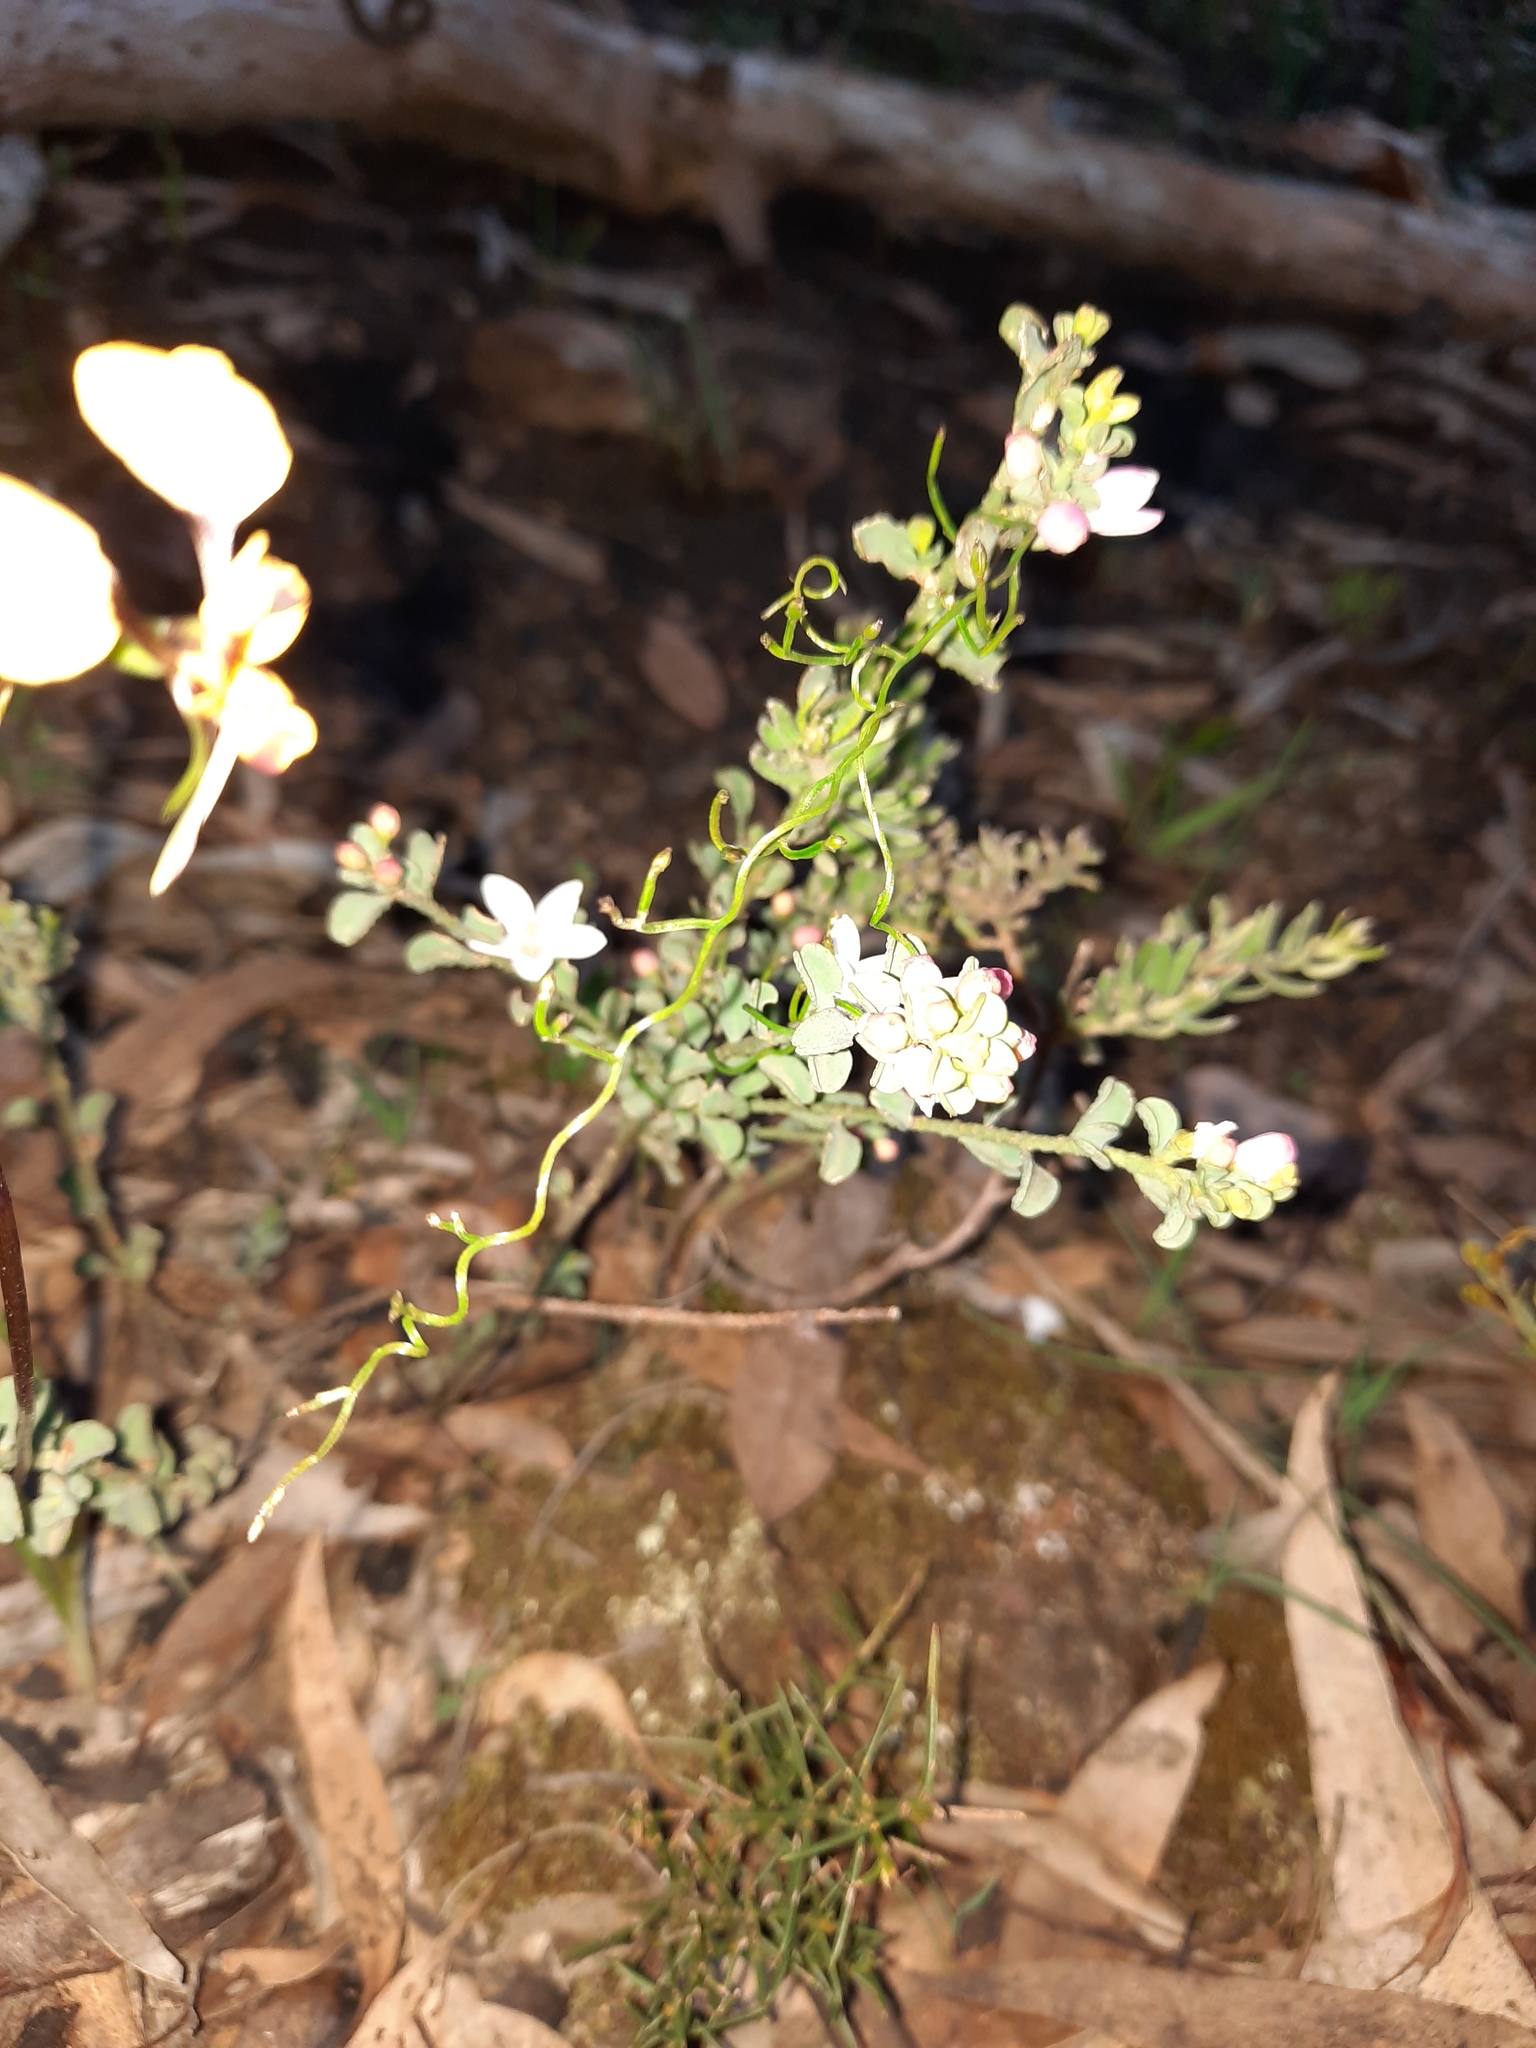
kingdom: Plantae
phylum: Tracheophyta
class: Magnoliopsida
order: Sapindales
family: Rutaceae
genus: Philotheca
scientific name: Philotheca verrucosa
